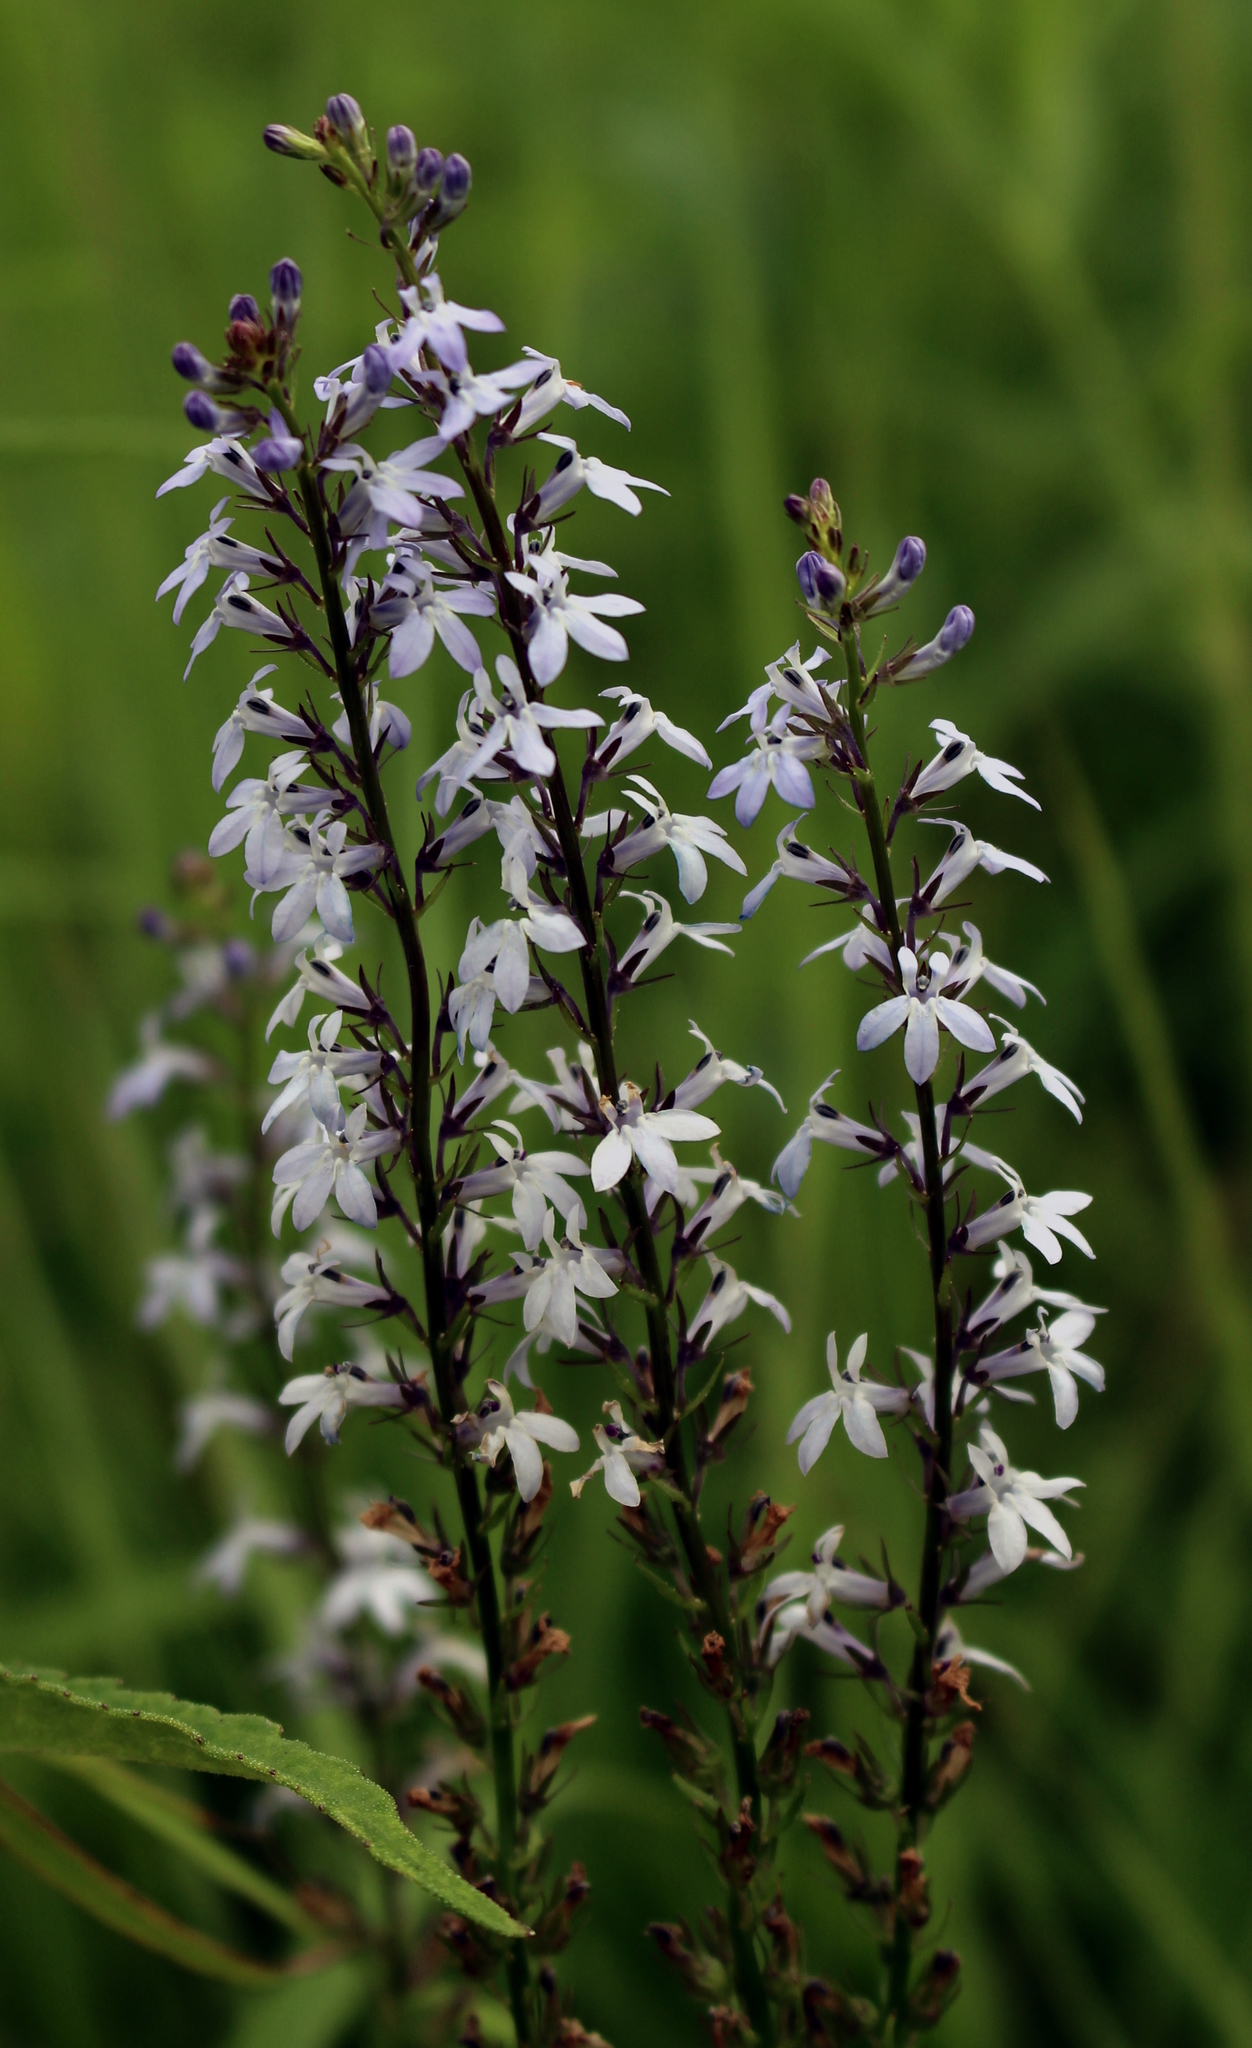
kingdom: Plantae
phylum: Tracheophyta
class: Magnoliopsida
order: Asterales
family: Campanulaceae
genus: Lobelia
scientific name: Lobelia spicata
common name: Pale-spike lobelia
